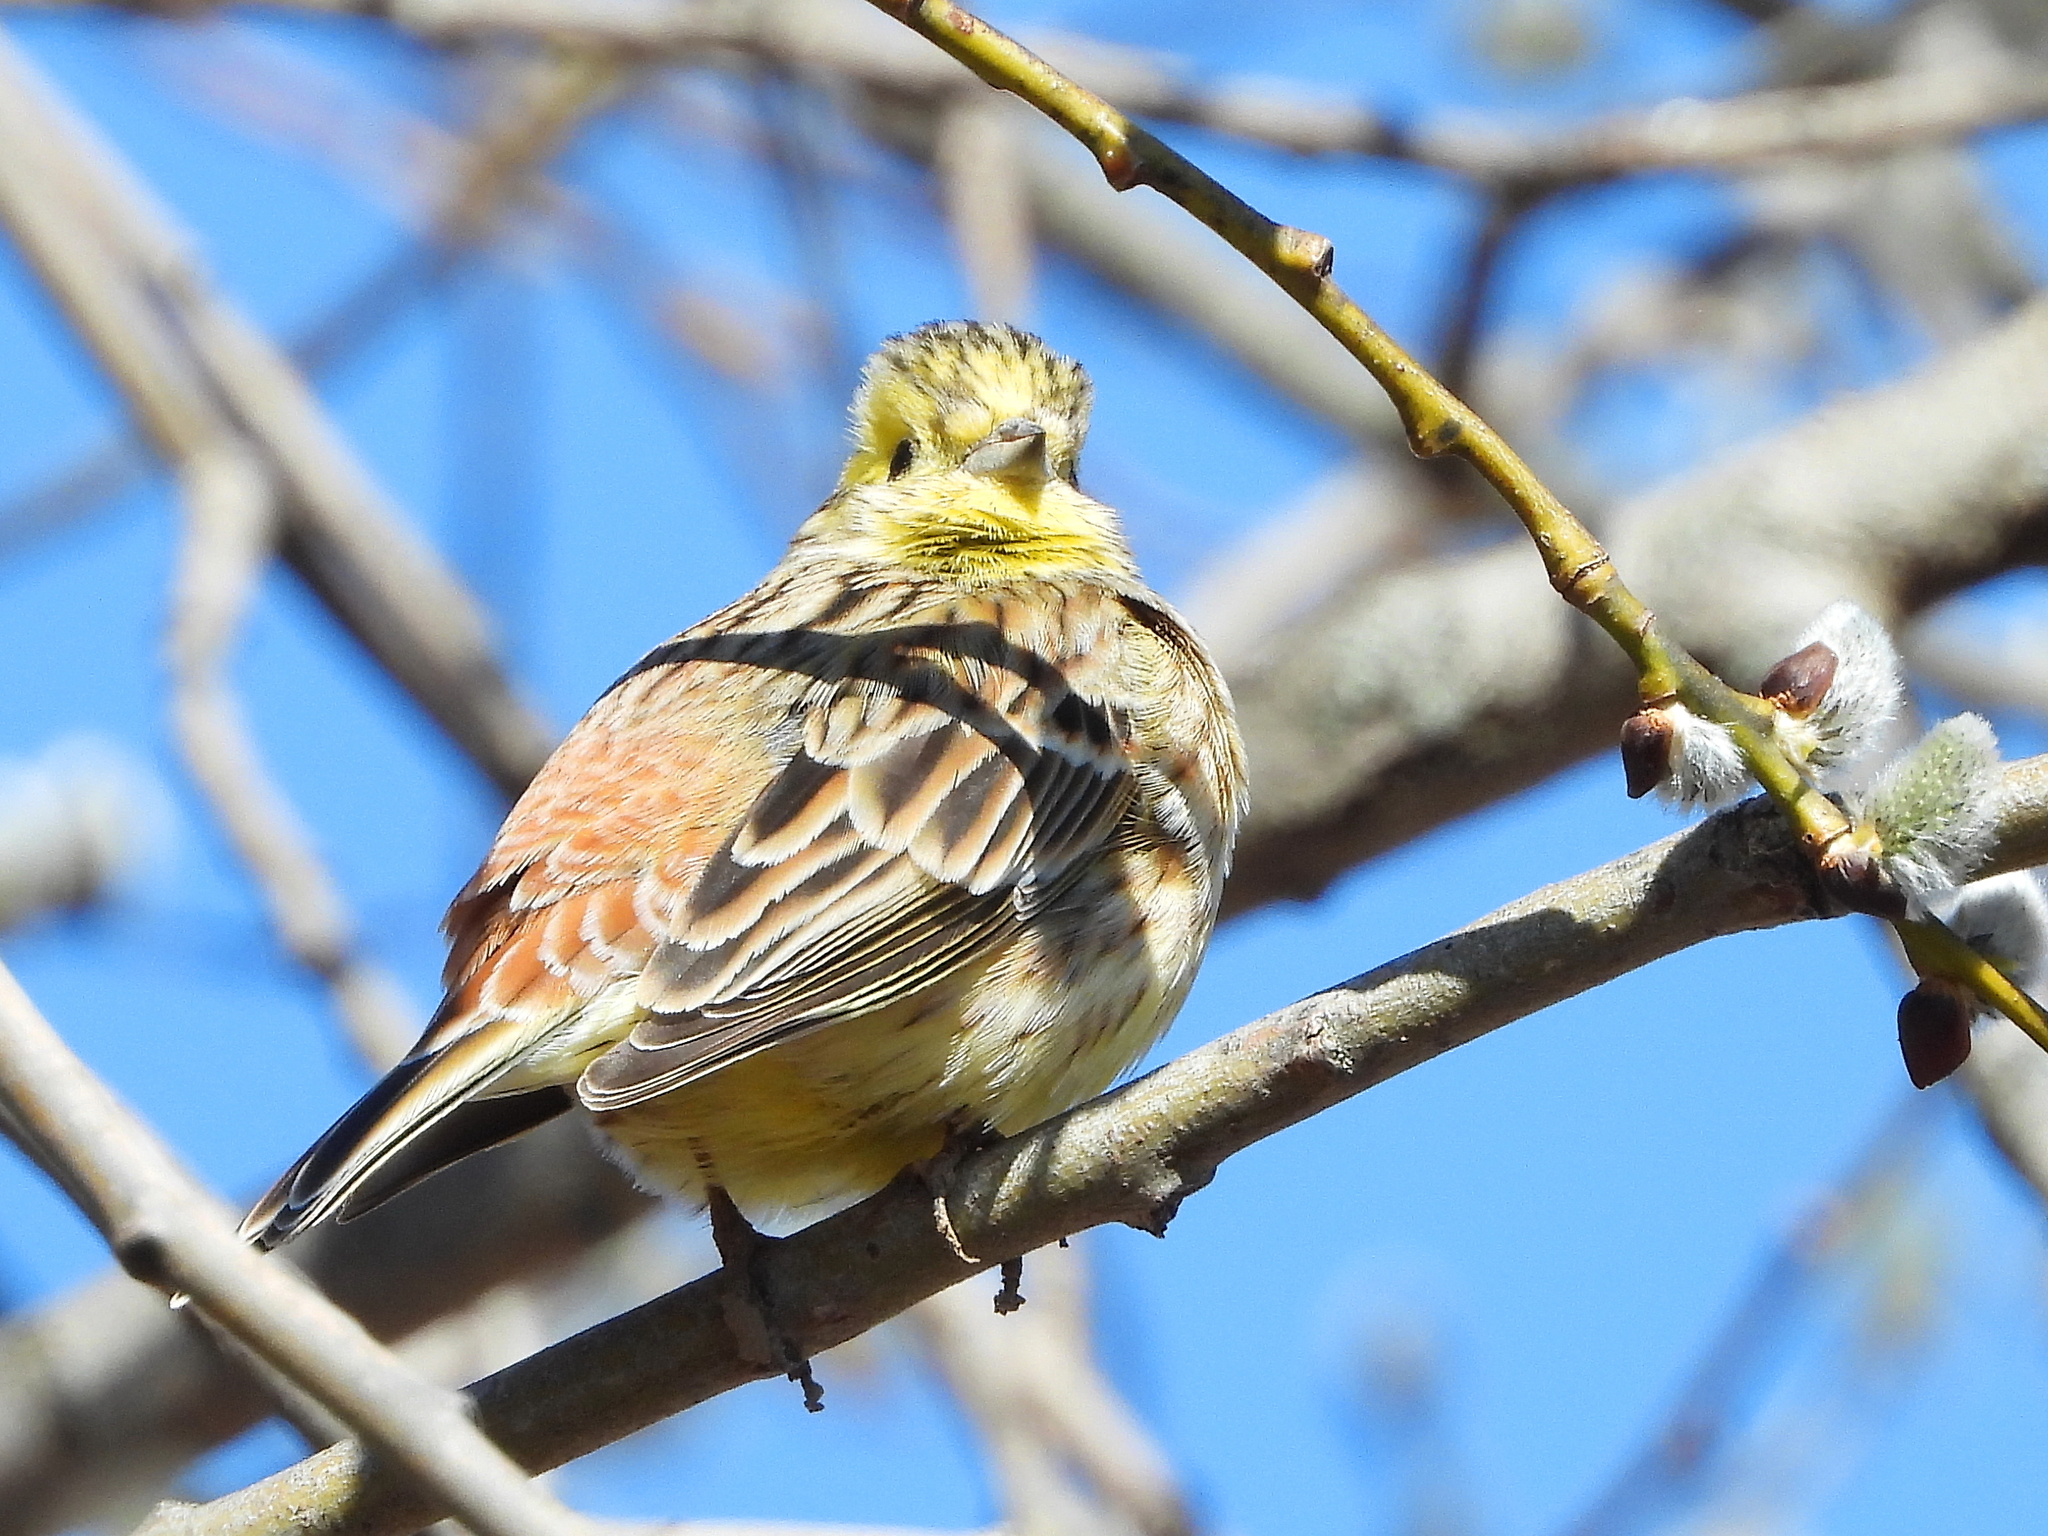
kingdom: Animalia
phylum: Chordata
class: Aves
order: Passeriformes
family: Emberizidae
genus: Emberiza
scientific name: Emberiza citrinella
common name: Yellowhammer
